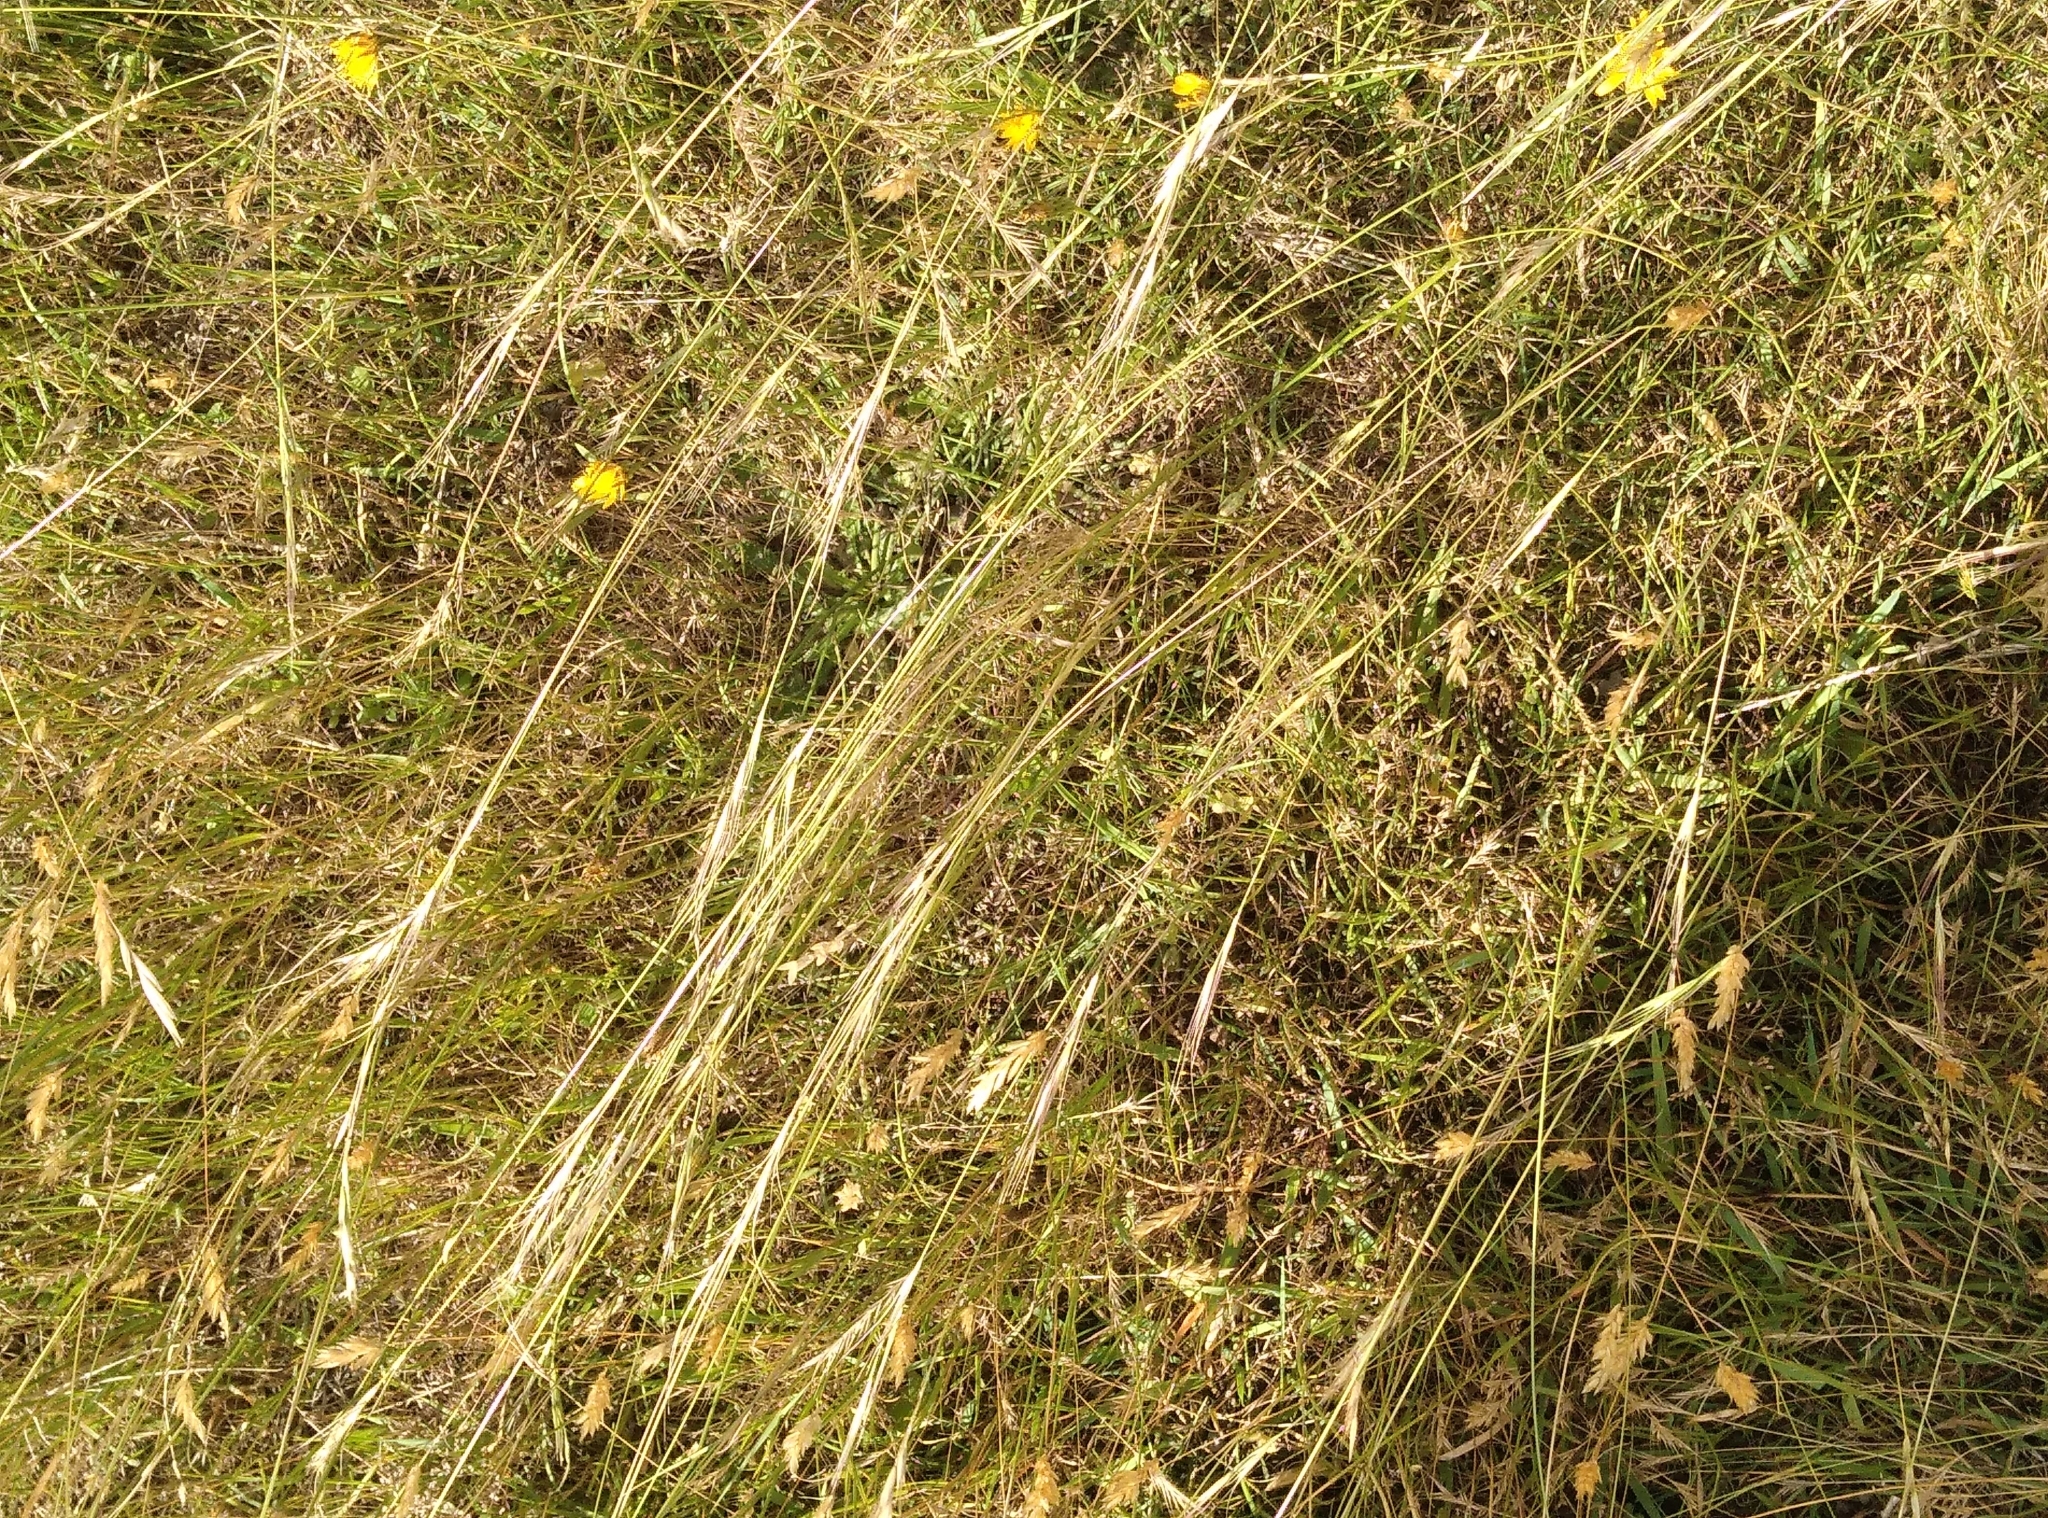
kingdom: Plantae
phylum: Tracheophyta
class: Liliopsida
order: Poales
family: Poaceae
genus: Anthosachne
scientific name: Anthosachne scabra
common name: Common wheatgrass
